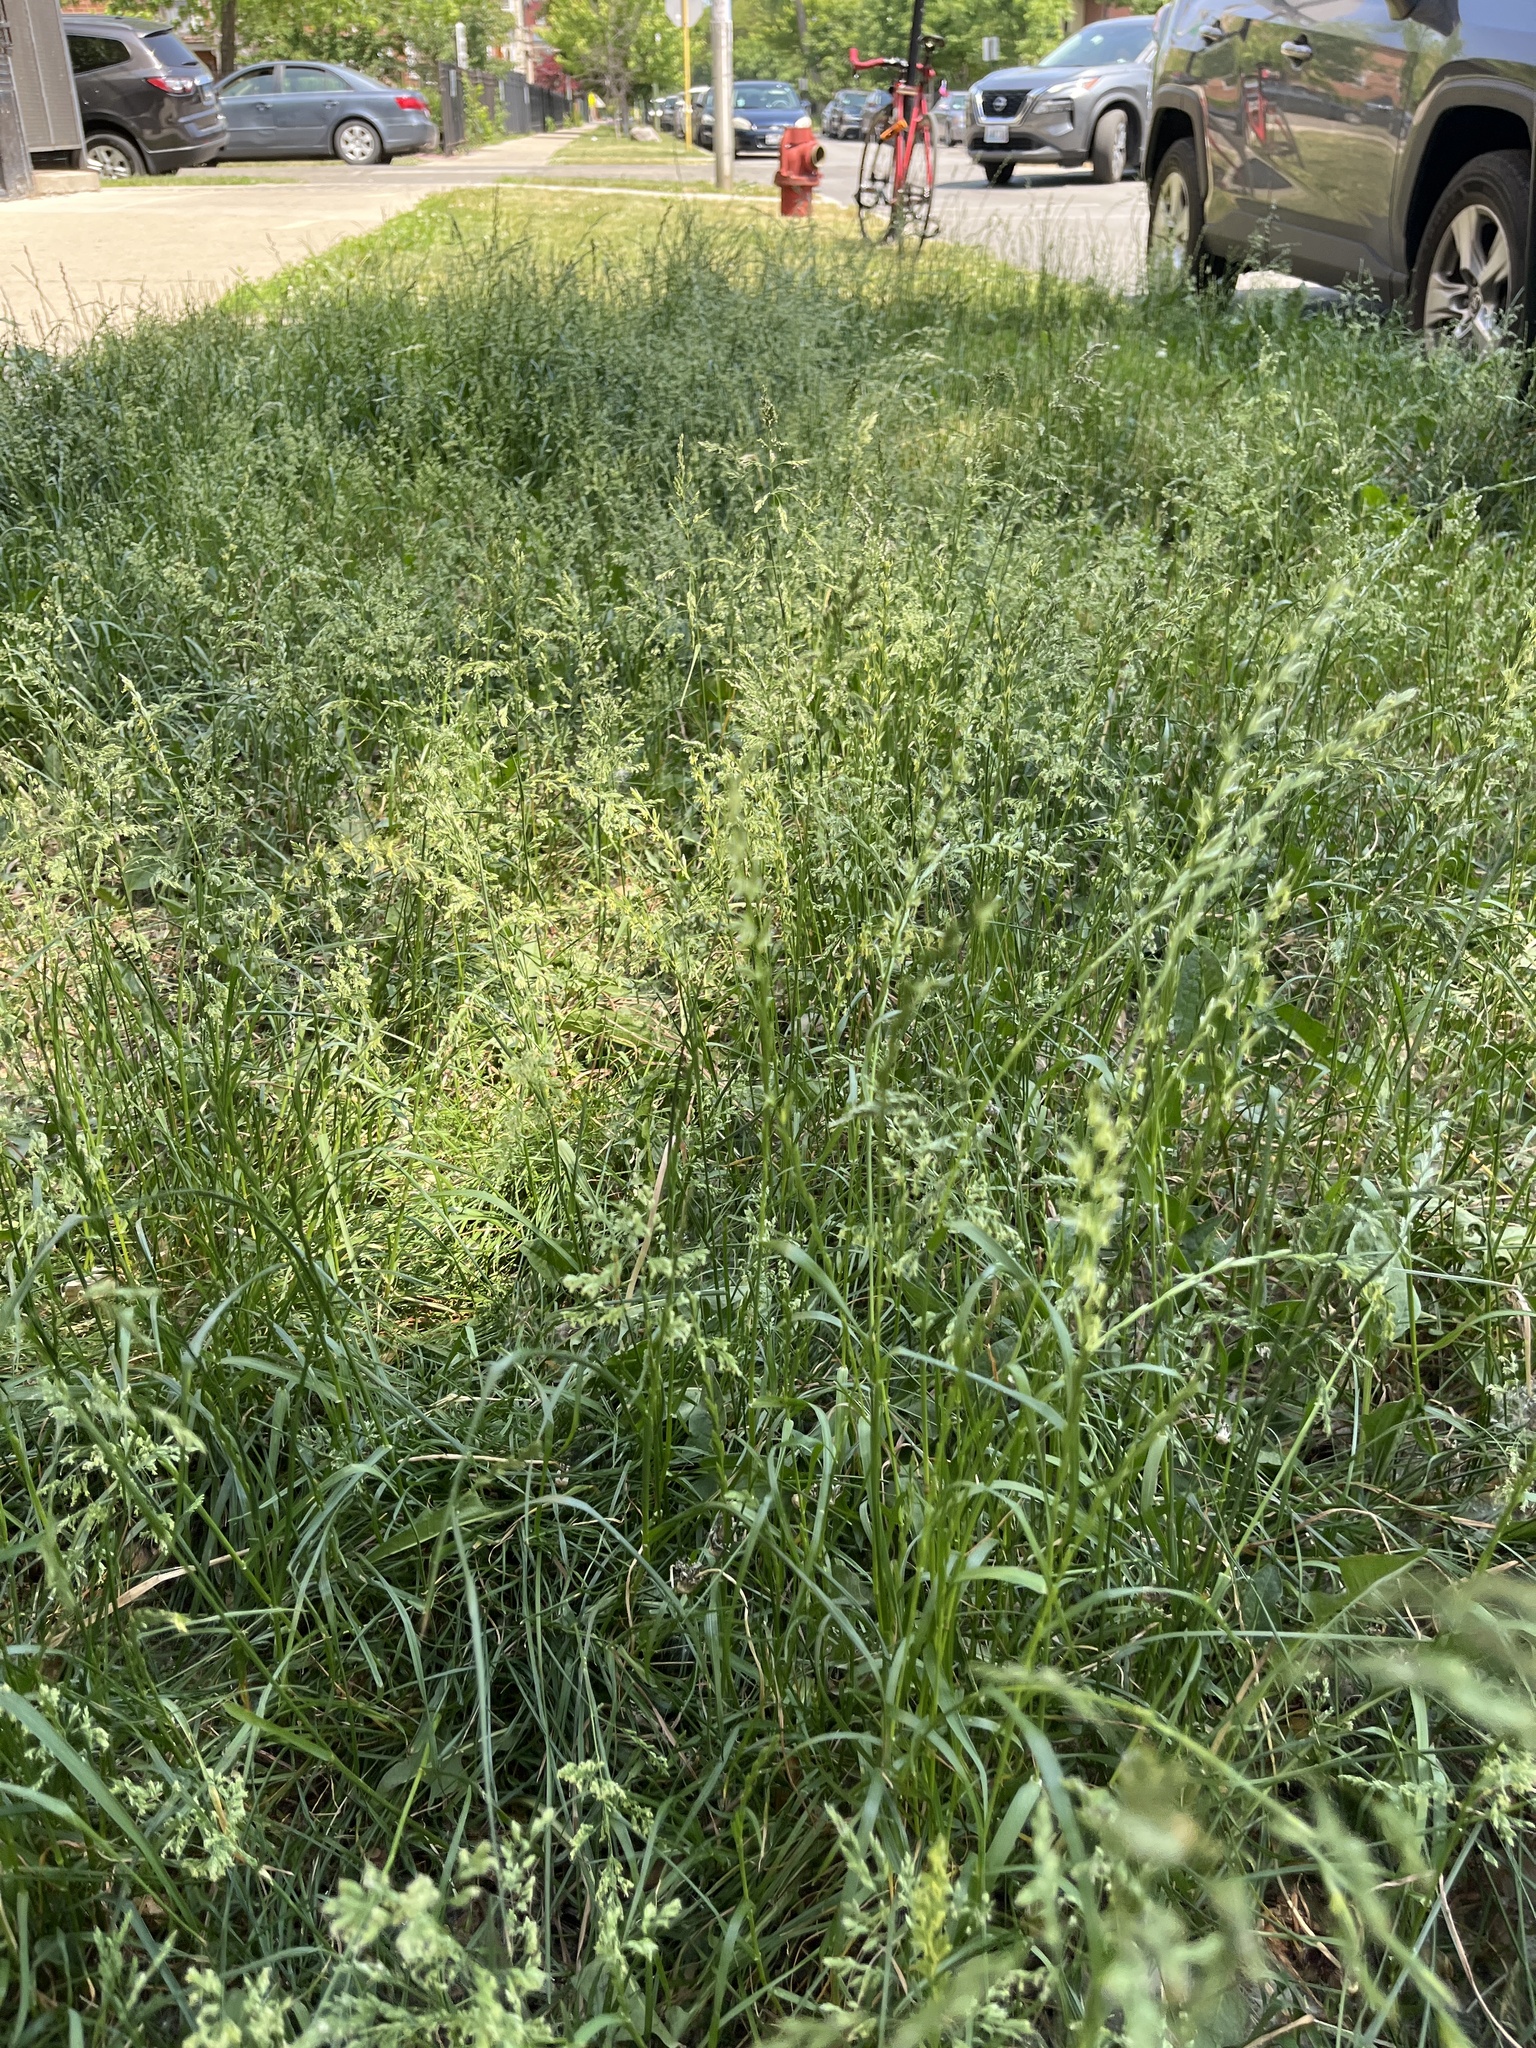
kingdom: Plantae
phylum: Tracheophyta
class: Liliopsida
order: Poales
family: Poaceae
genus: Poa
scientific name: Poa pratensis
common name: Kentucky bluegrass
